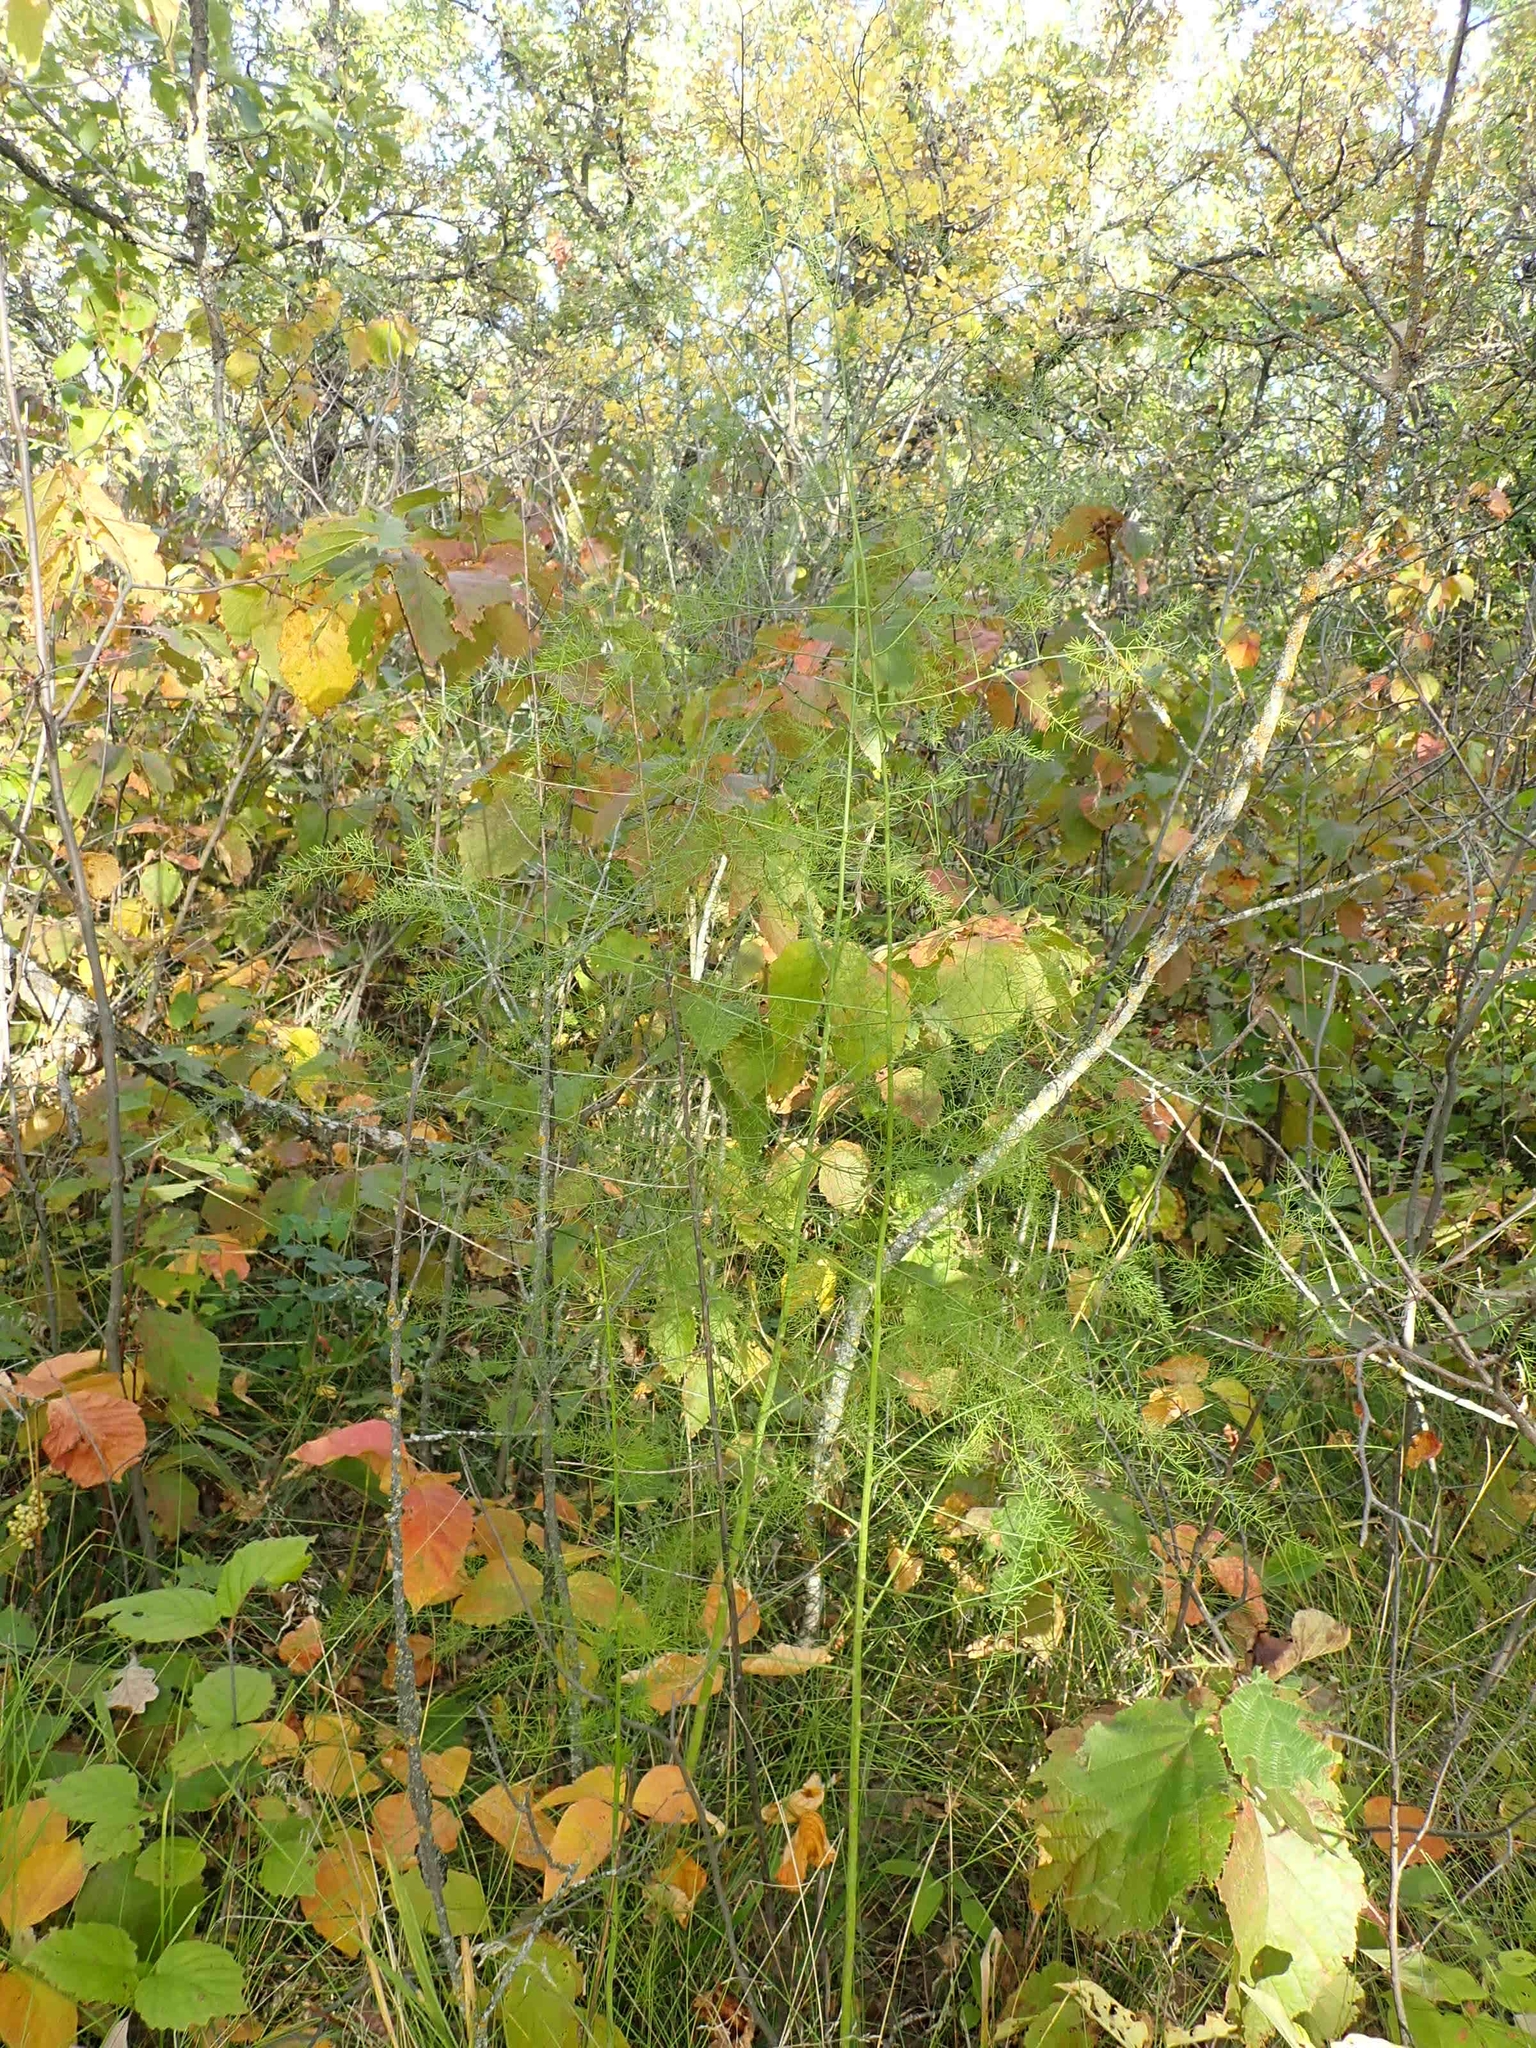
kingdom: Plantae
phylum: Tracheophyta
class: Liliopsida
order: Asparagales
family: Asparagaceae
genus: Asparagus
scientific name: Asparagus officinalis
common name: Garden asparagus
